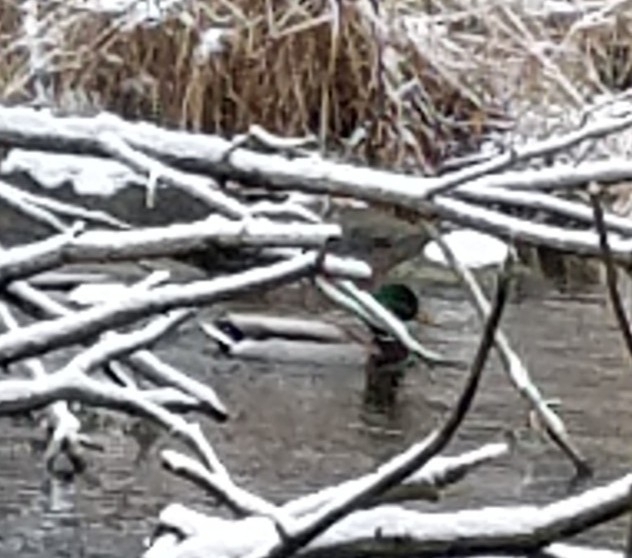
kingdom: Animalia
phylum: Chordata
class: Aves
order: Anseriformes
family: Anatidae
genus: Anas
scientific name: Anas platyrhynchos
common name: Mallard
